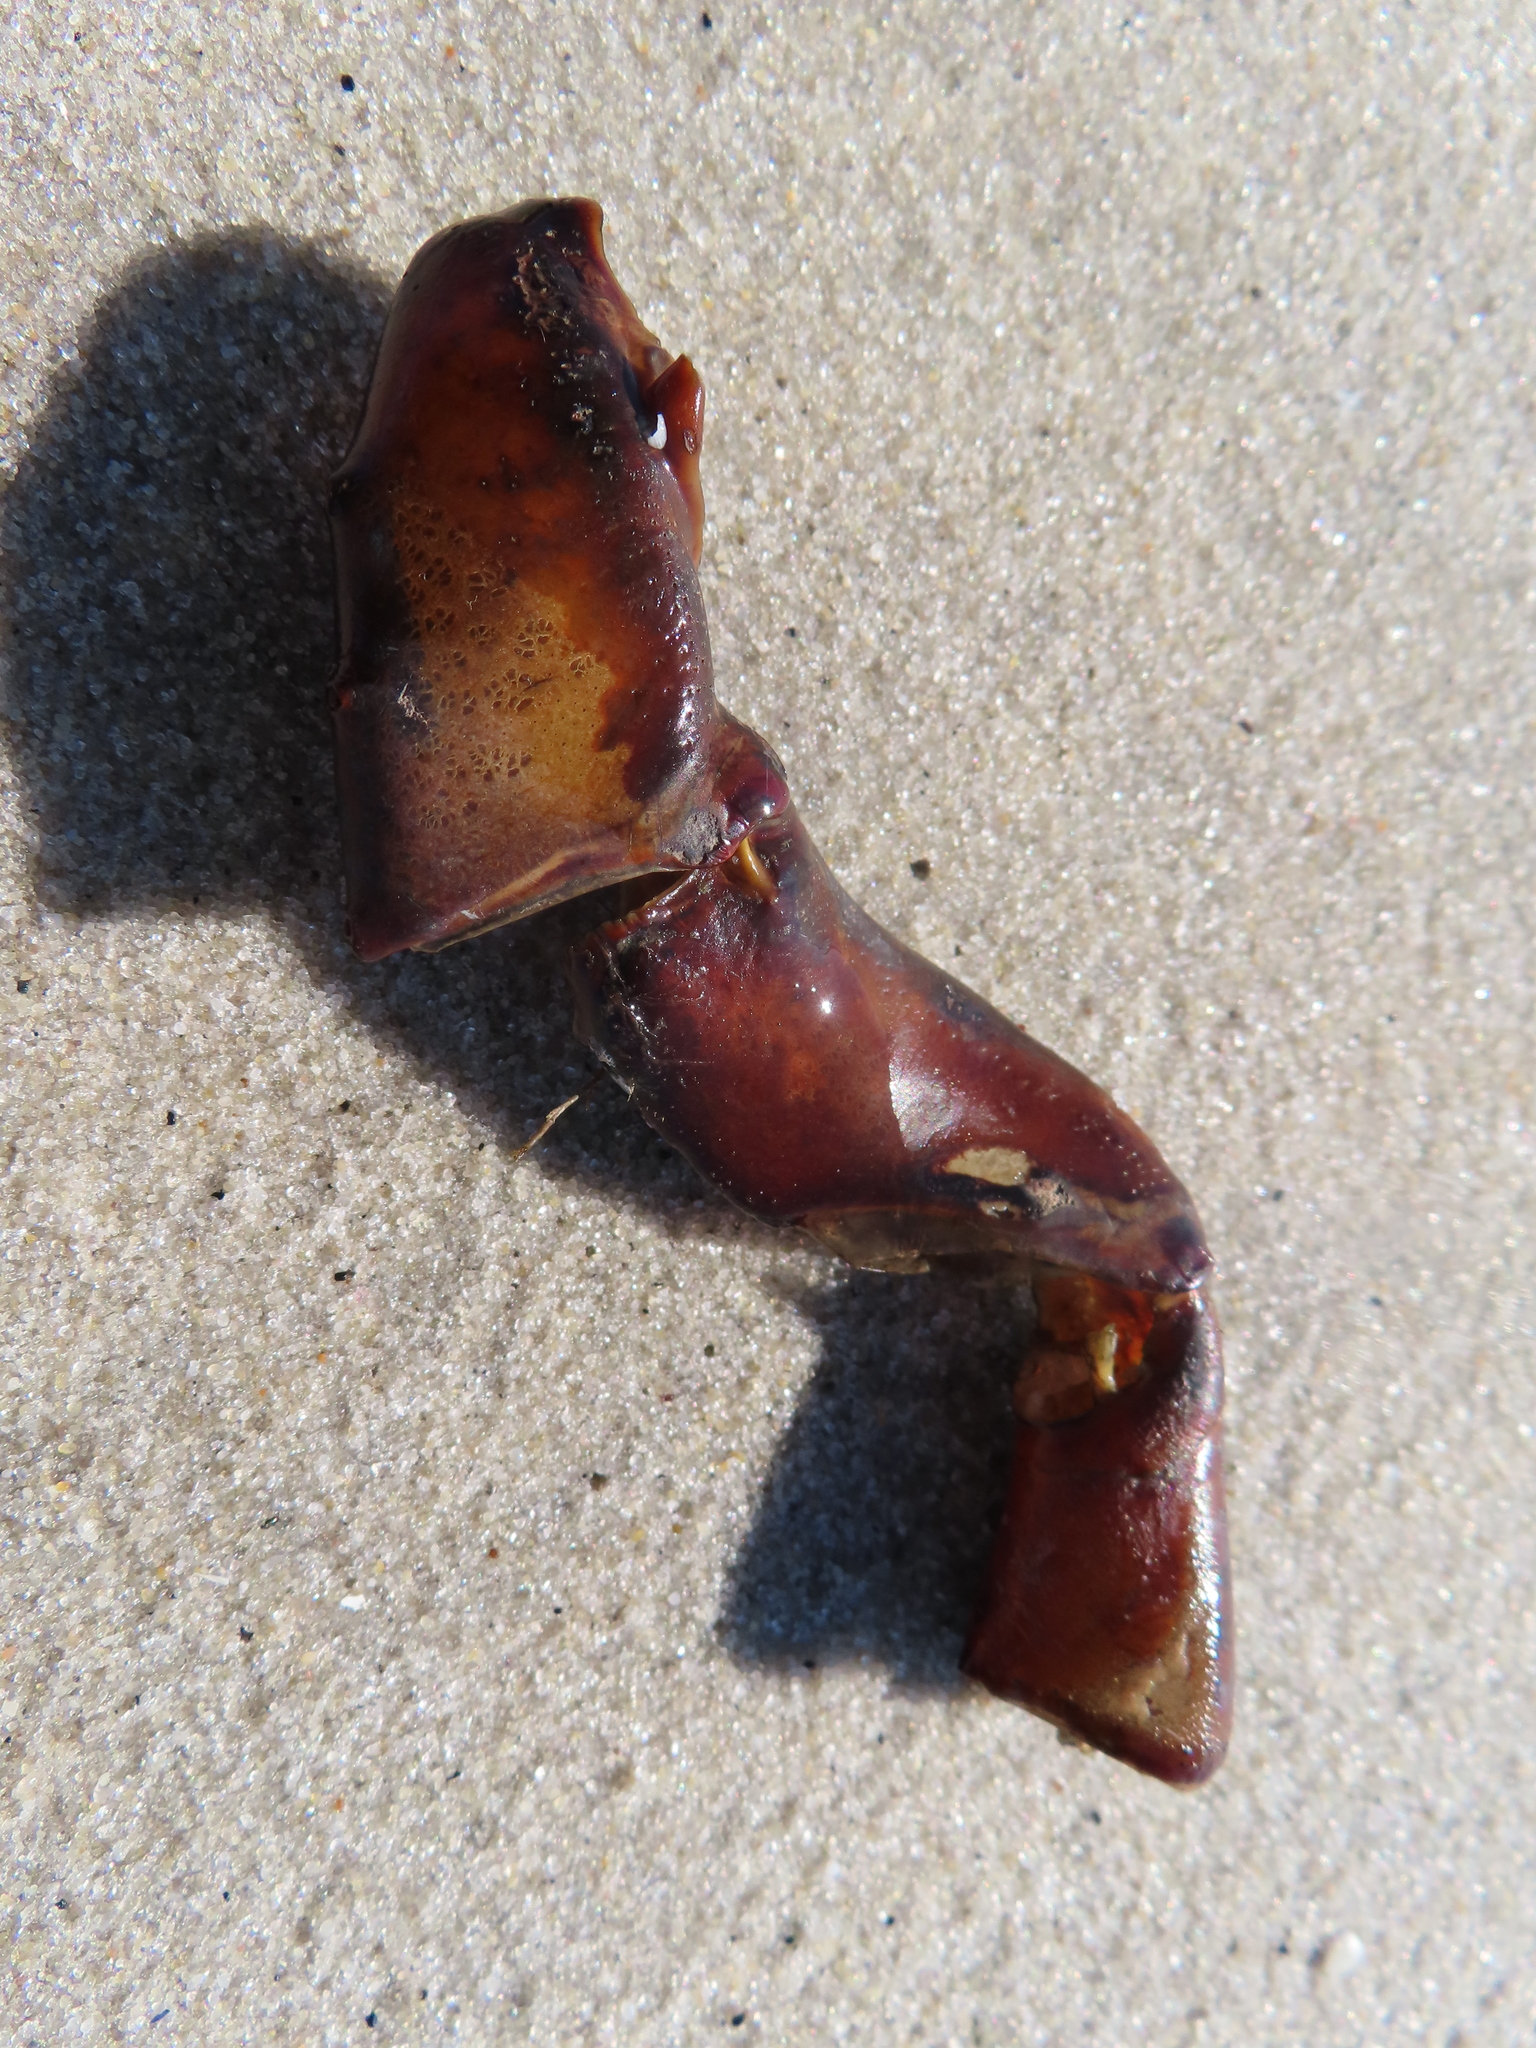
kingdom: Animalia
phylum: Arthropoda
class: Merostomata
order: Xiphosurida
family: Limulidae
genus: Limulus
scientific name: Limulus polyphemus
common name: Horseshoe crab
